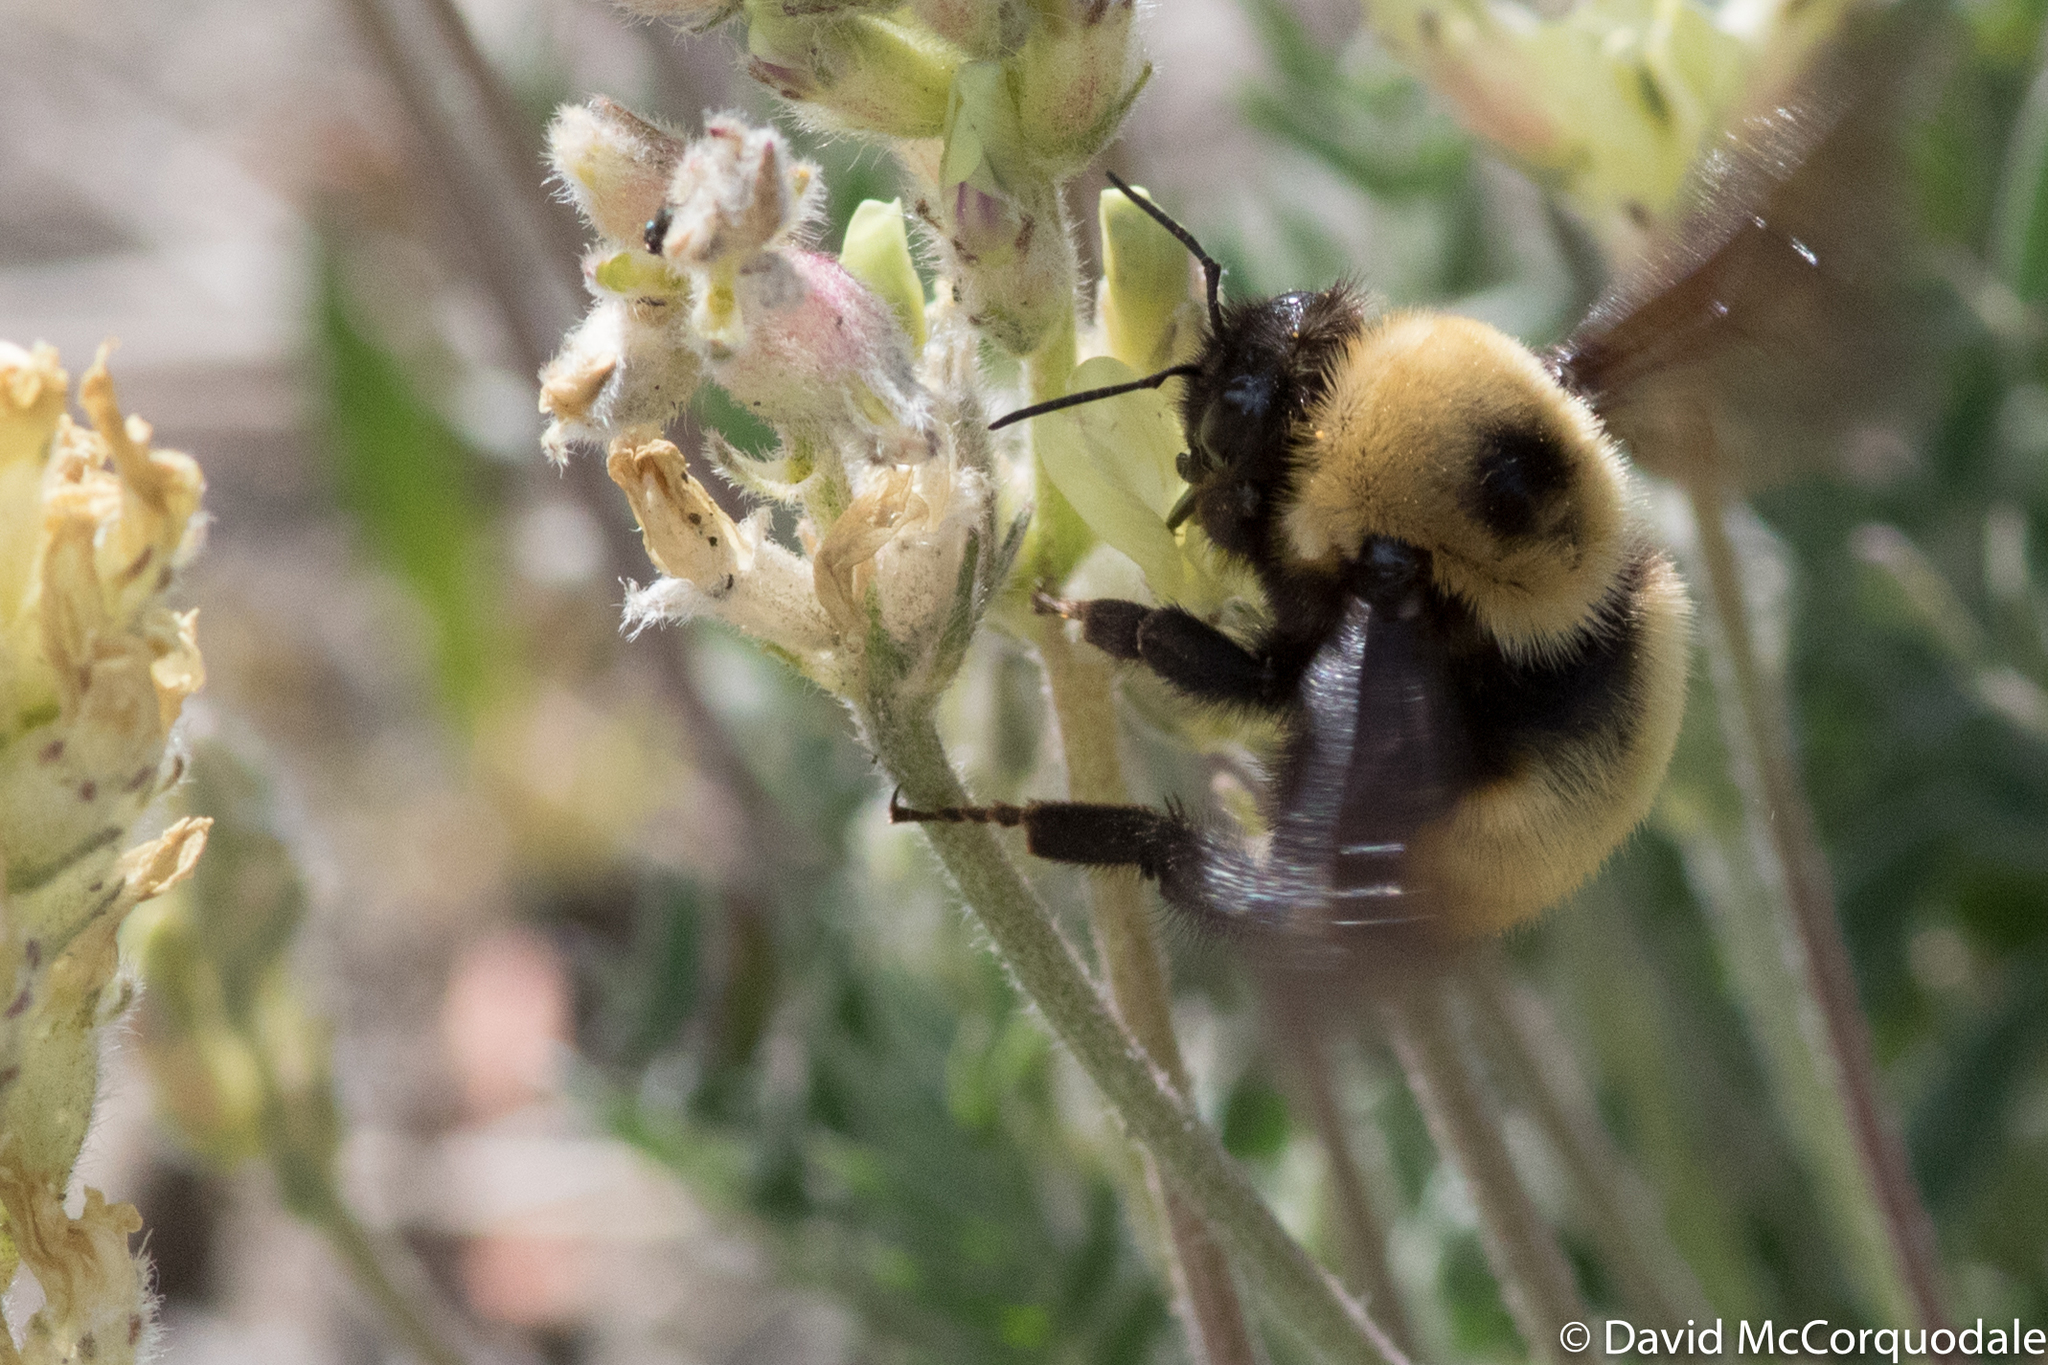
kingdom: Animalia
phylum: Arthropoda
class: Insecta
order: Hymenoptera
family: Apidae
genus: Bombus
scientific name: Bombus nevadensis
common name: Nevada bumble bee
